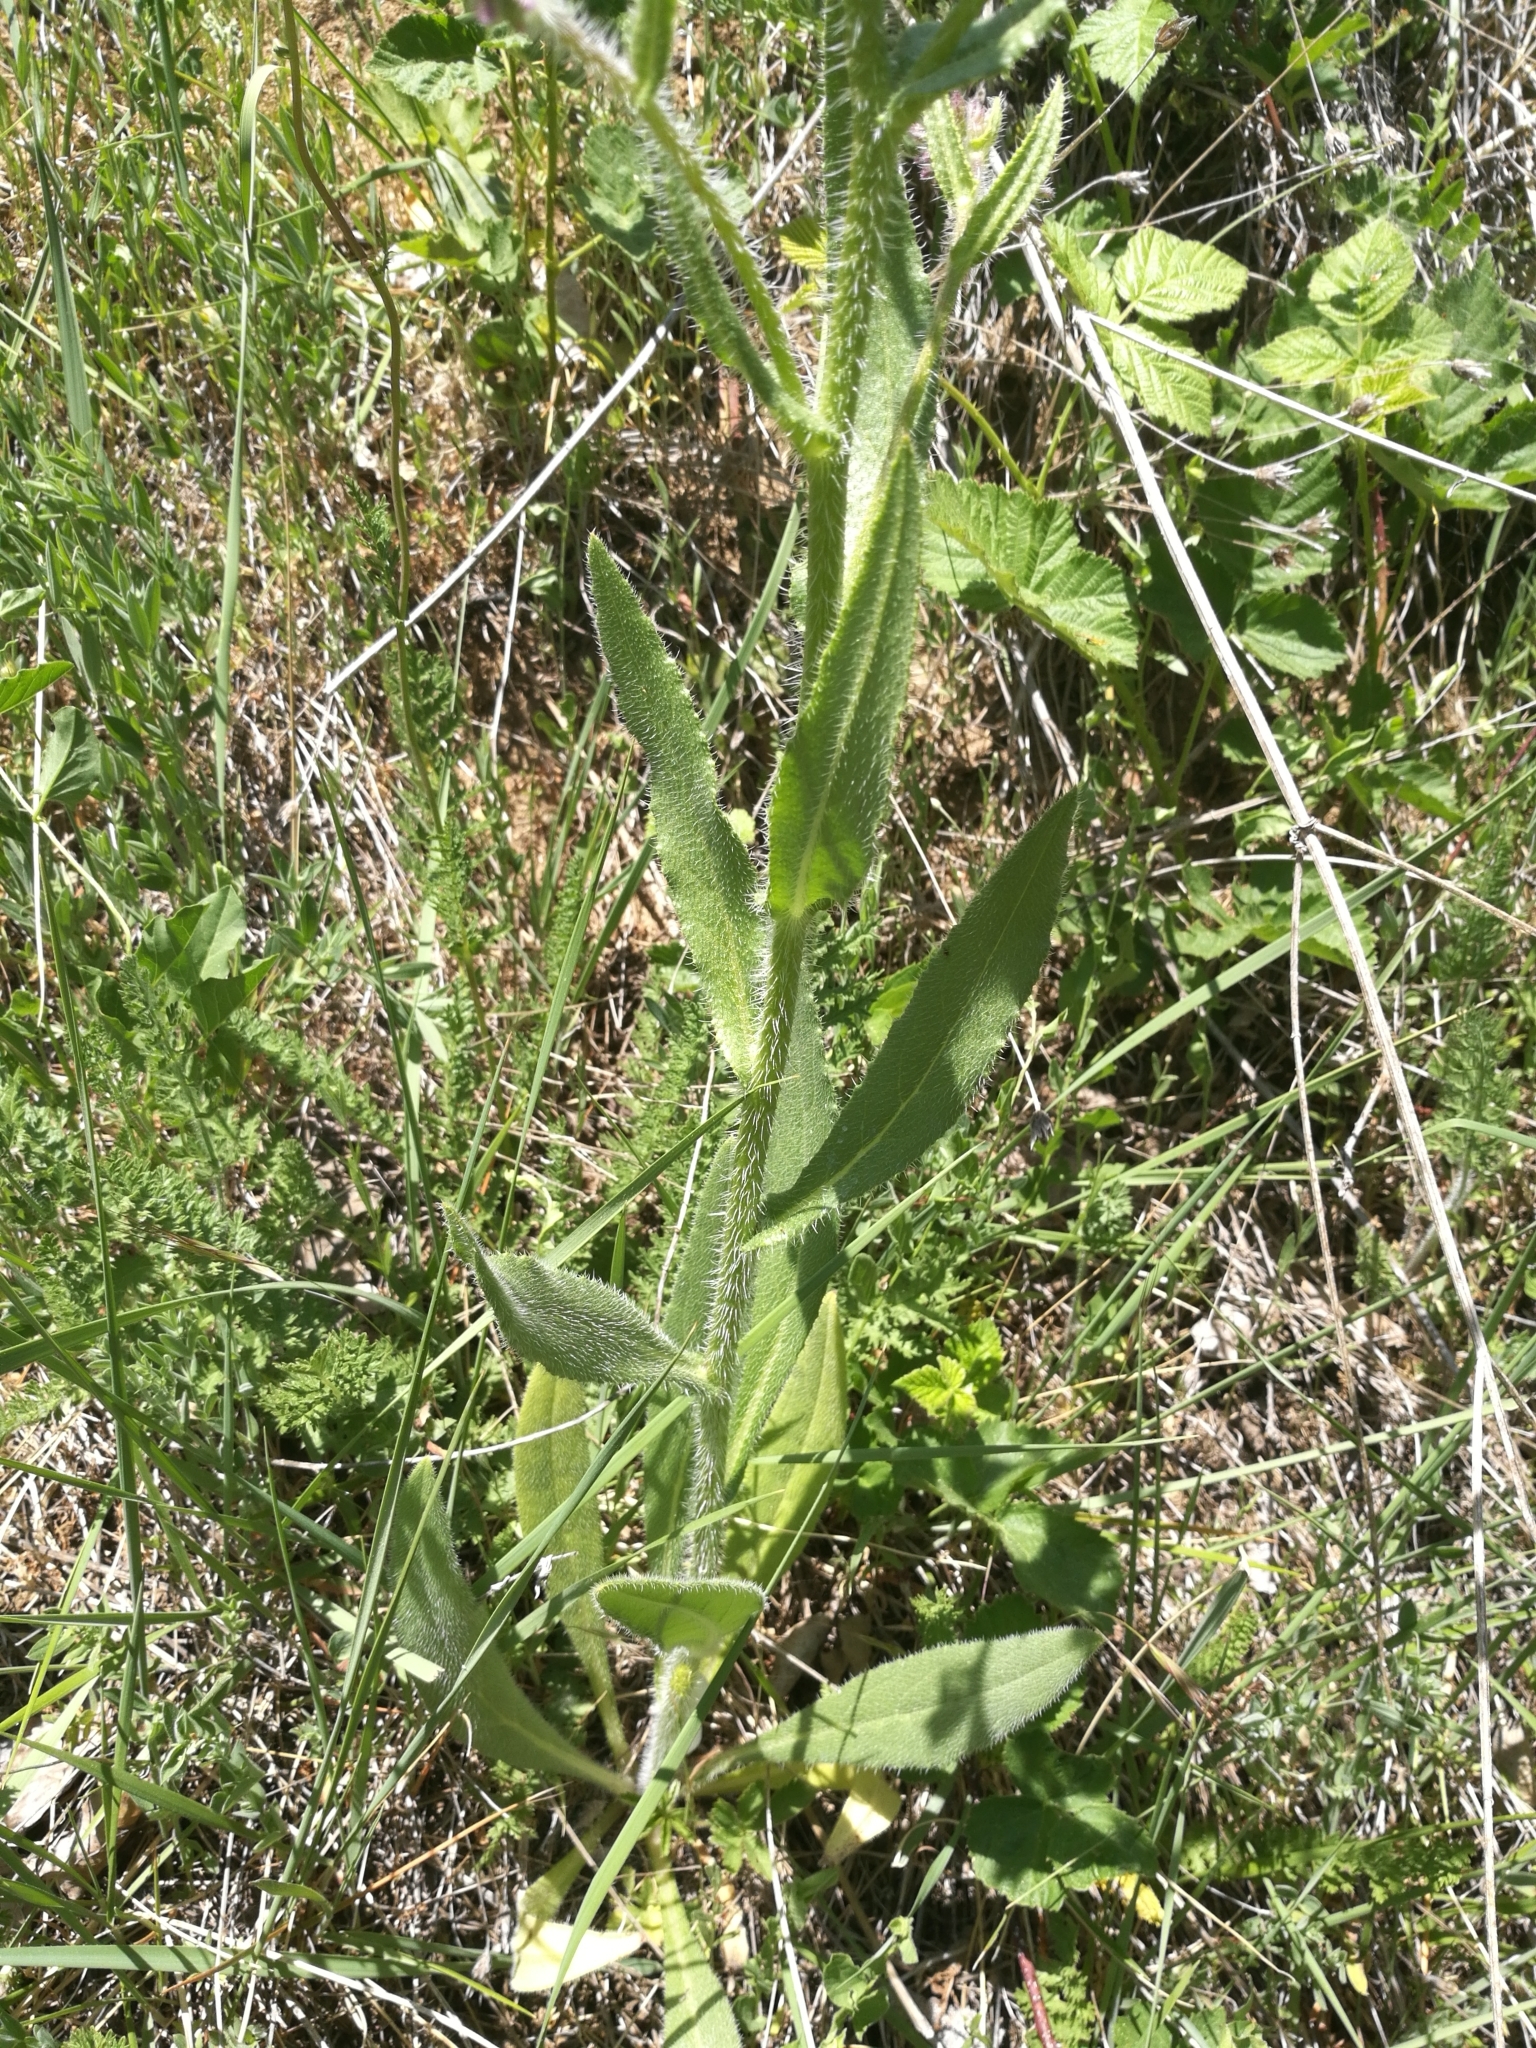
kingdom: Plantae
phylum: Tracheophyta
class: Magnoliopsida
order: Boraginales
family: Boraginaceae
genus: Anchusa
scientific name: Anchusa azurea
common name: Garden anchusa
